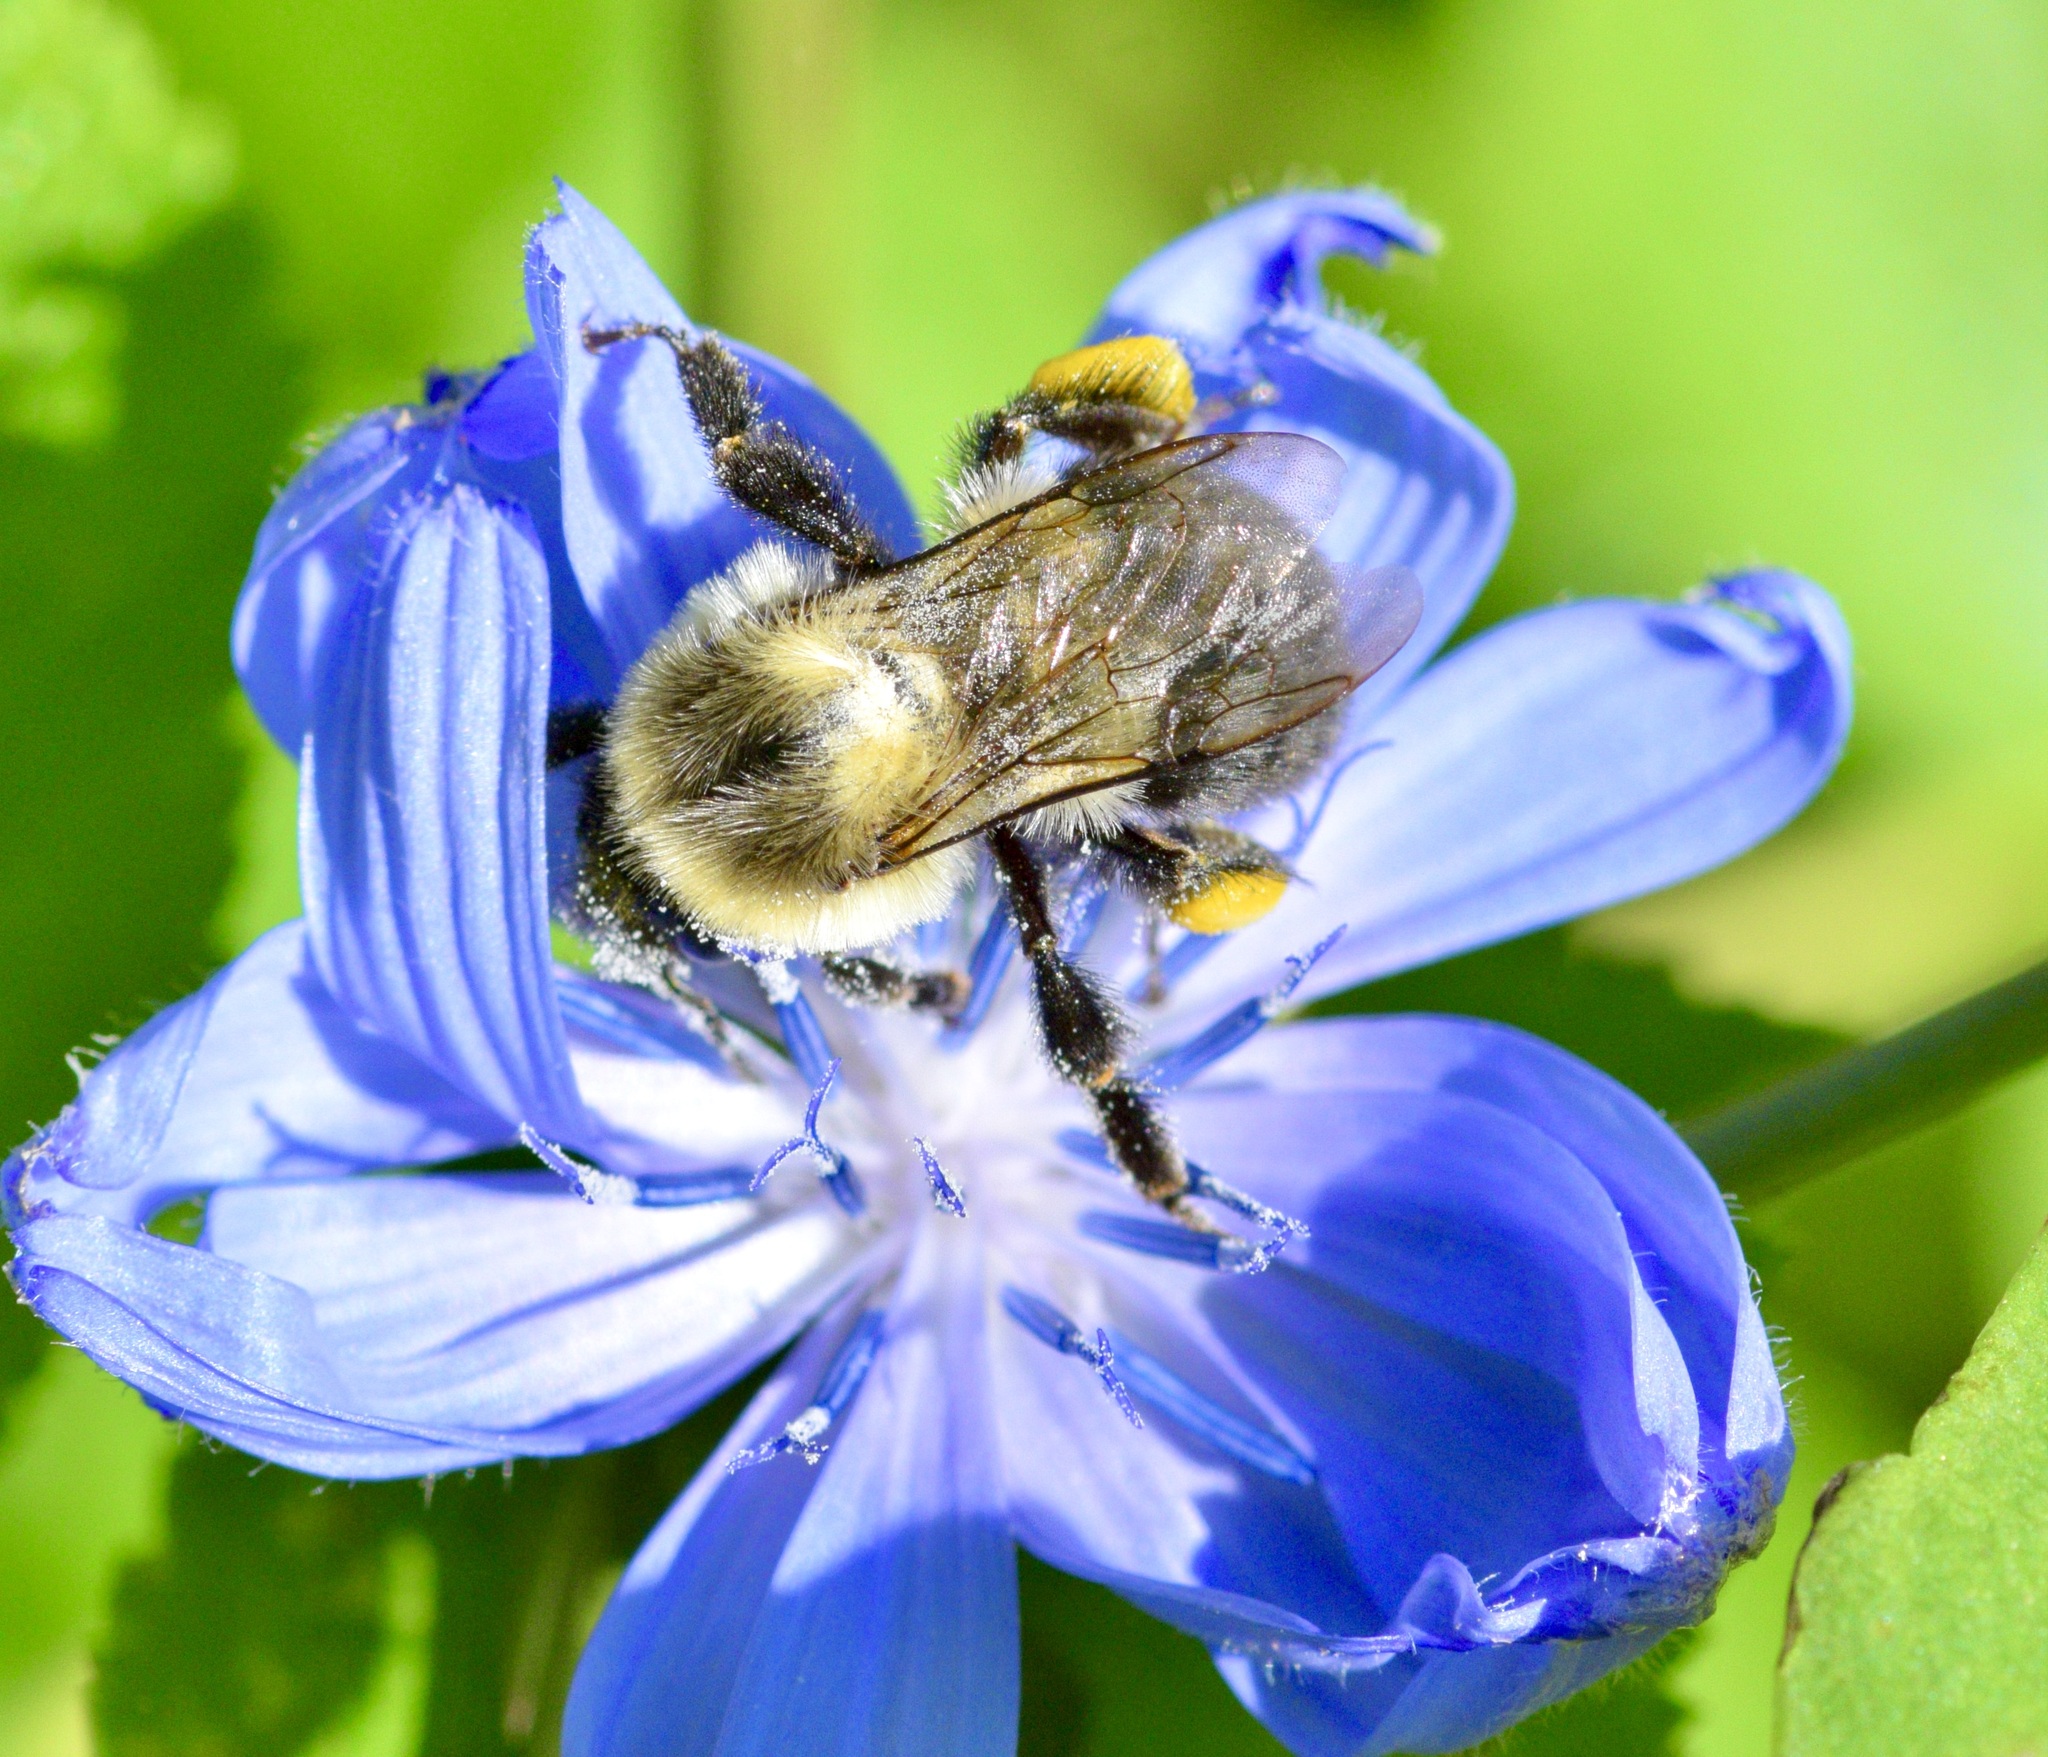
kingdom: Animalia
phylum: Arthropoda
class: Insecta
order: Hymenoptera
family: Apidae
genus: Bombus
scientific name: Bombus impatiens
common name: Common eastern bumble bee
